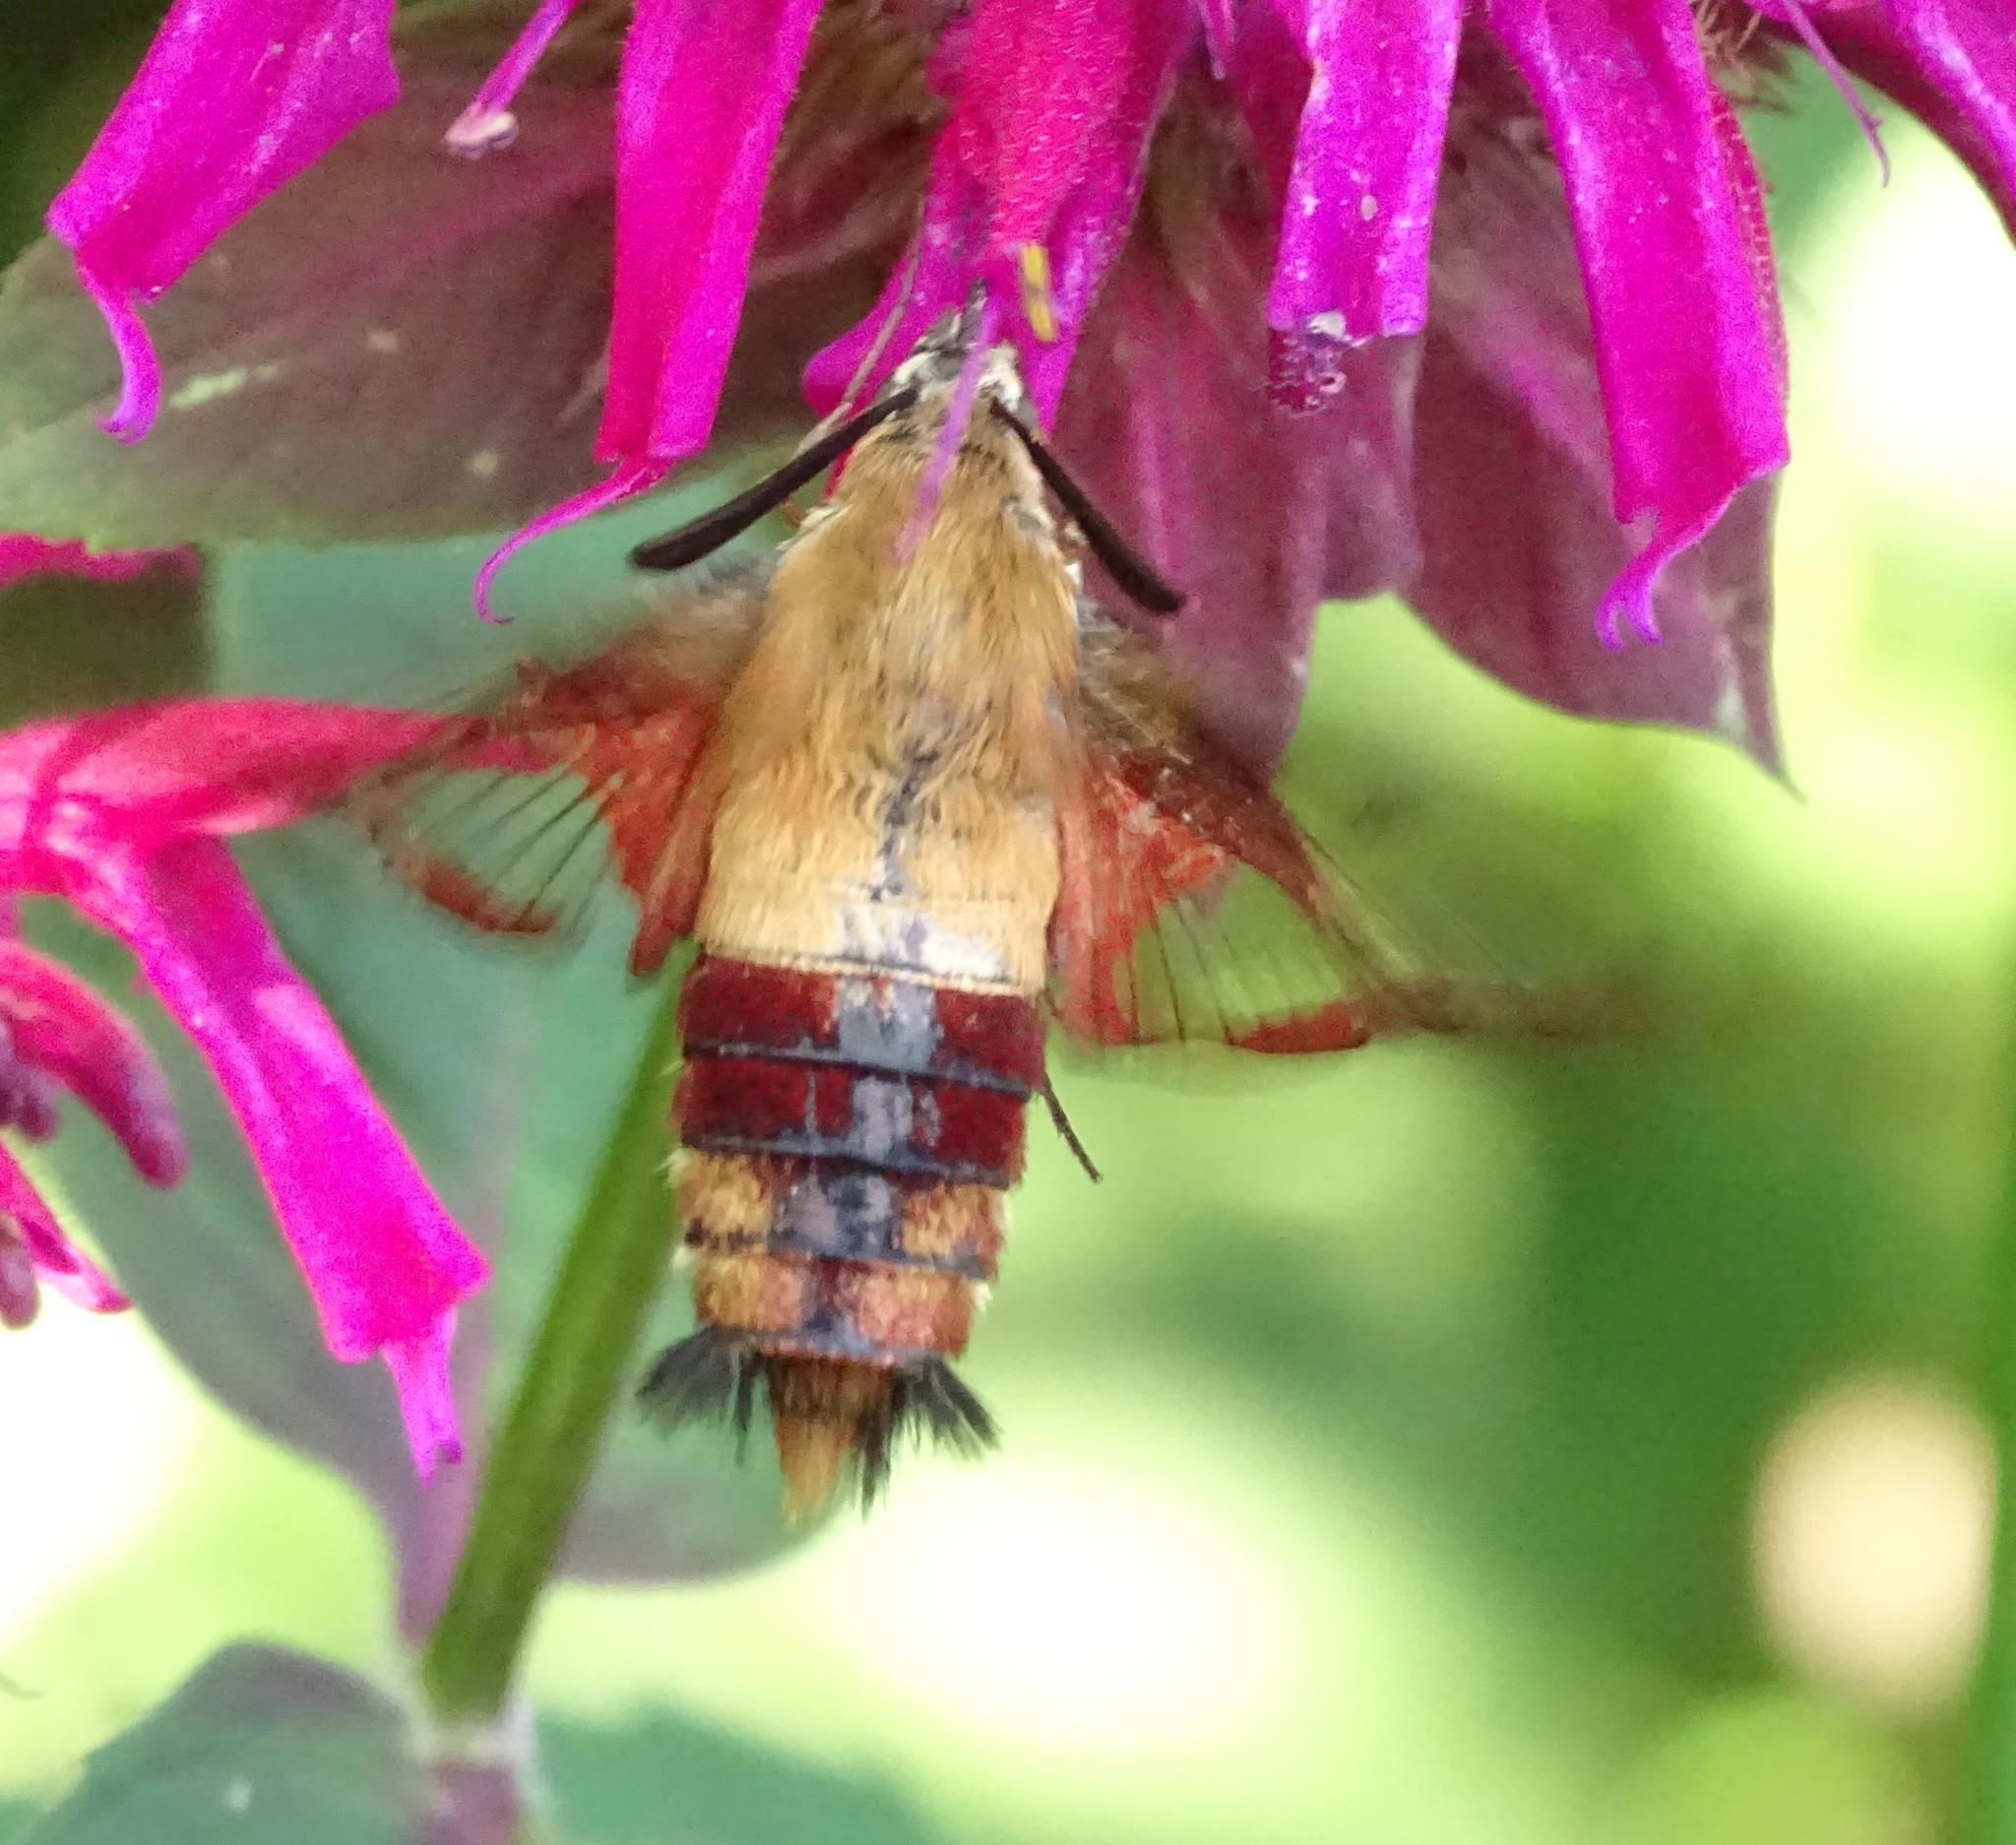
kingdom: Animalia
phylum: Arthropoda
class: Insecta
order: Lepidoptera
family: Sphingidae
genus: Hemaris
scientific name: Hemaris thysbe
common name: Common clear-wing
